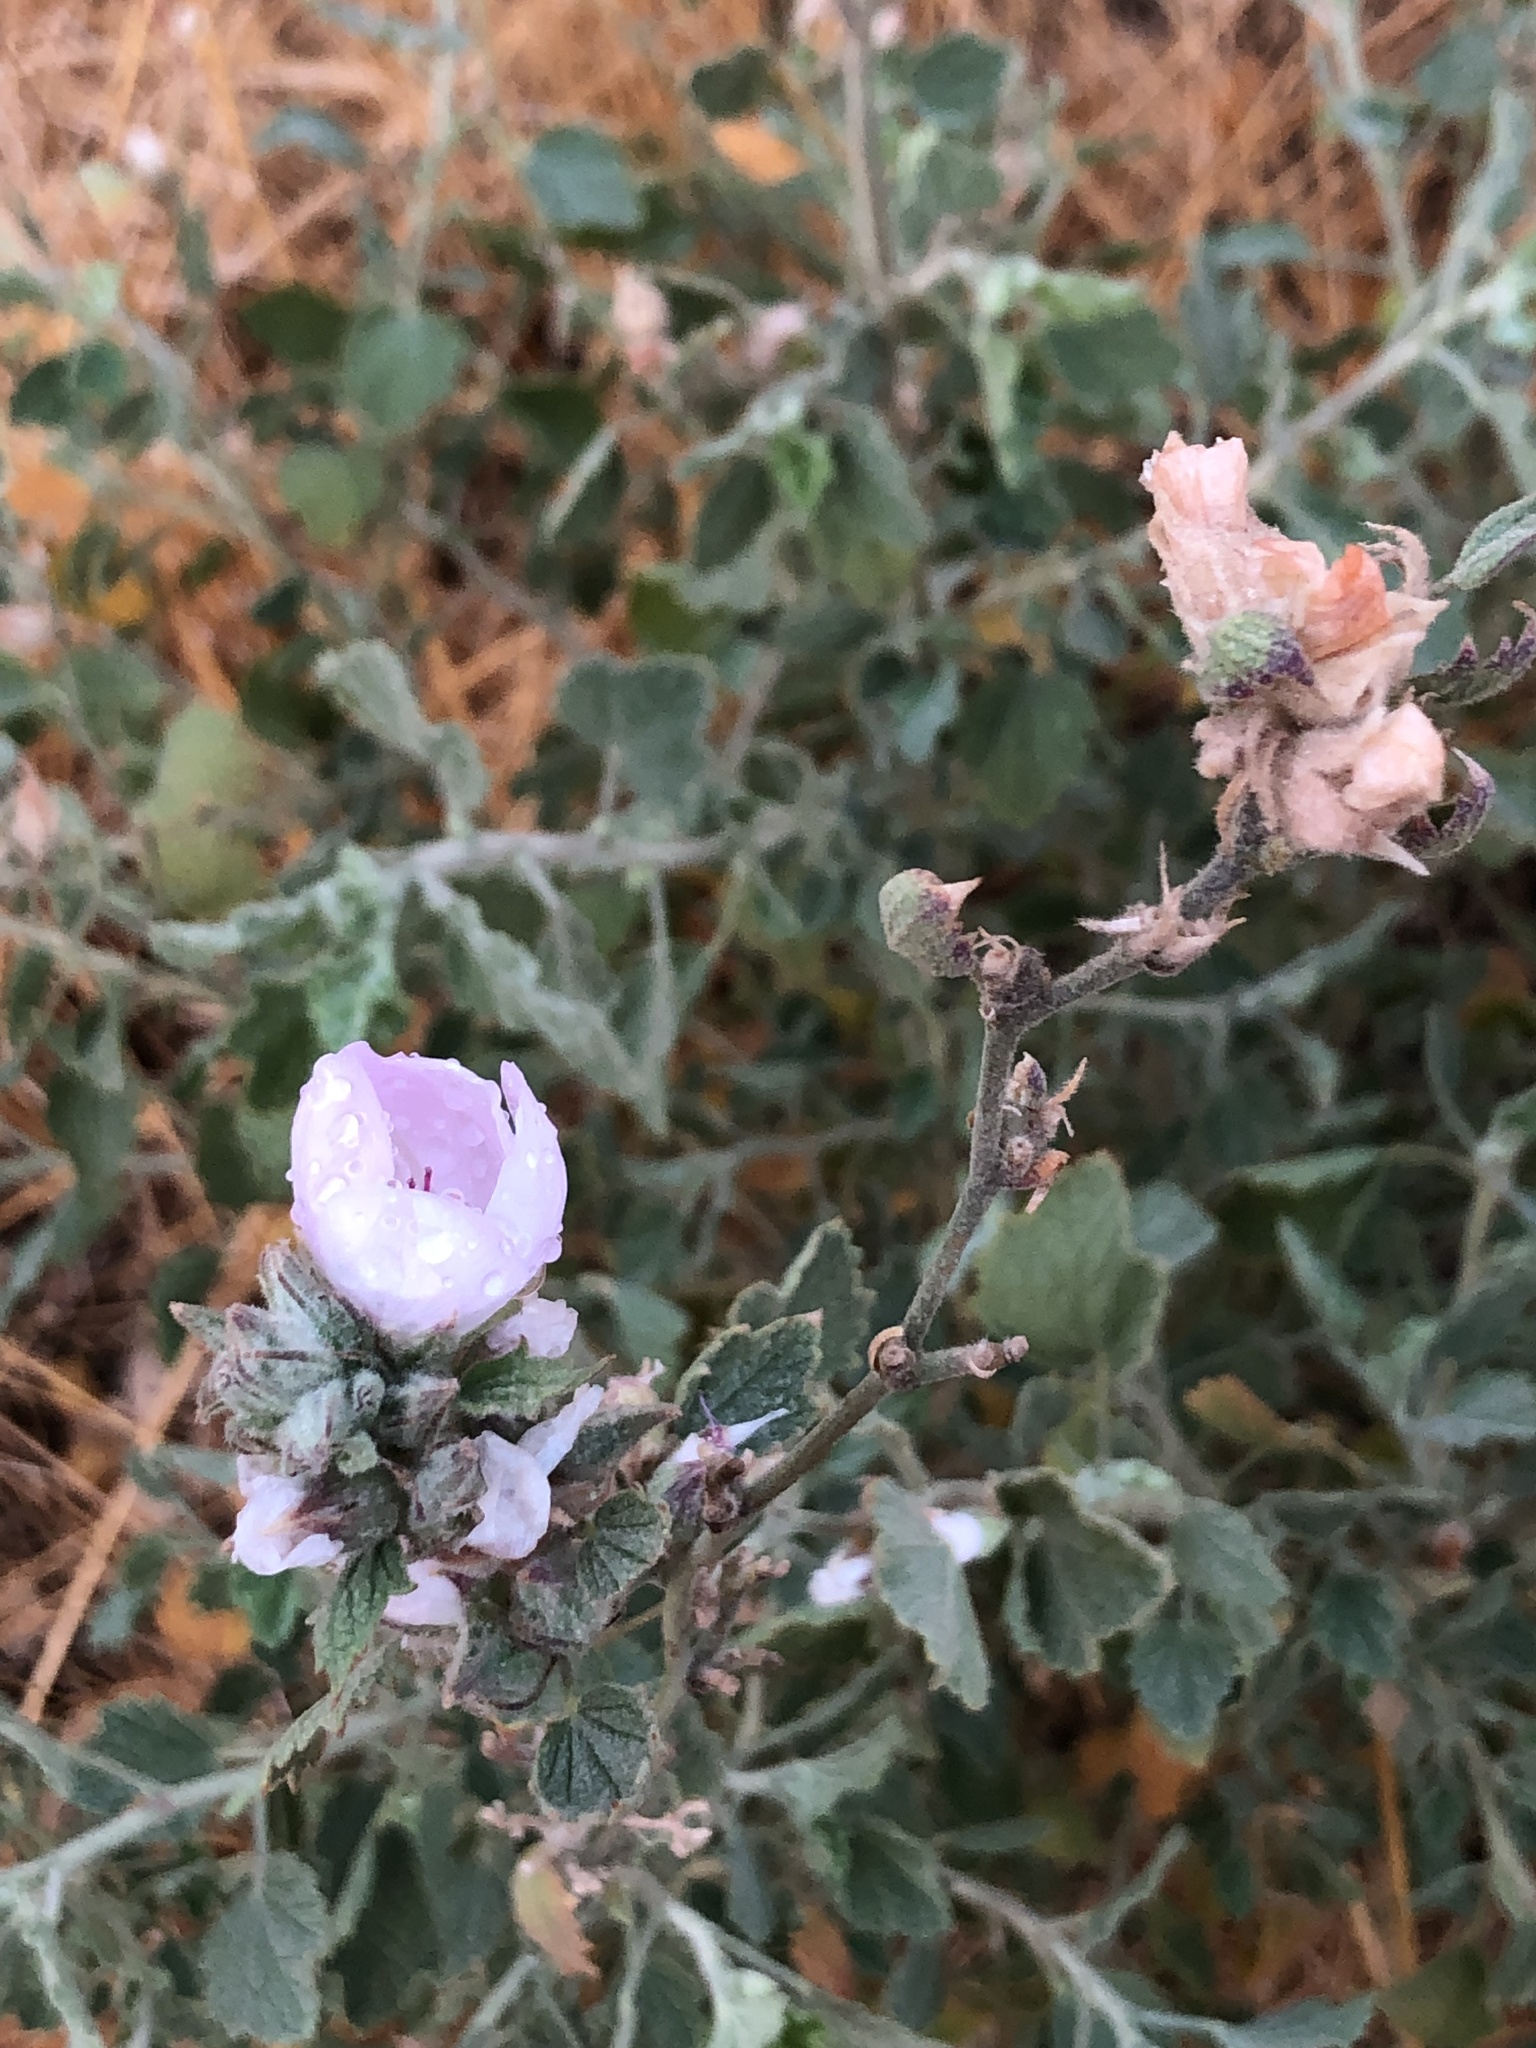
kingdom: Plantae
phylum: Tracheophyta
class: Magnoliopsida
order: Malvales
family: Malvaceae
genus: Malacothamnus
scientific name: Malacothamnus marrubioides
